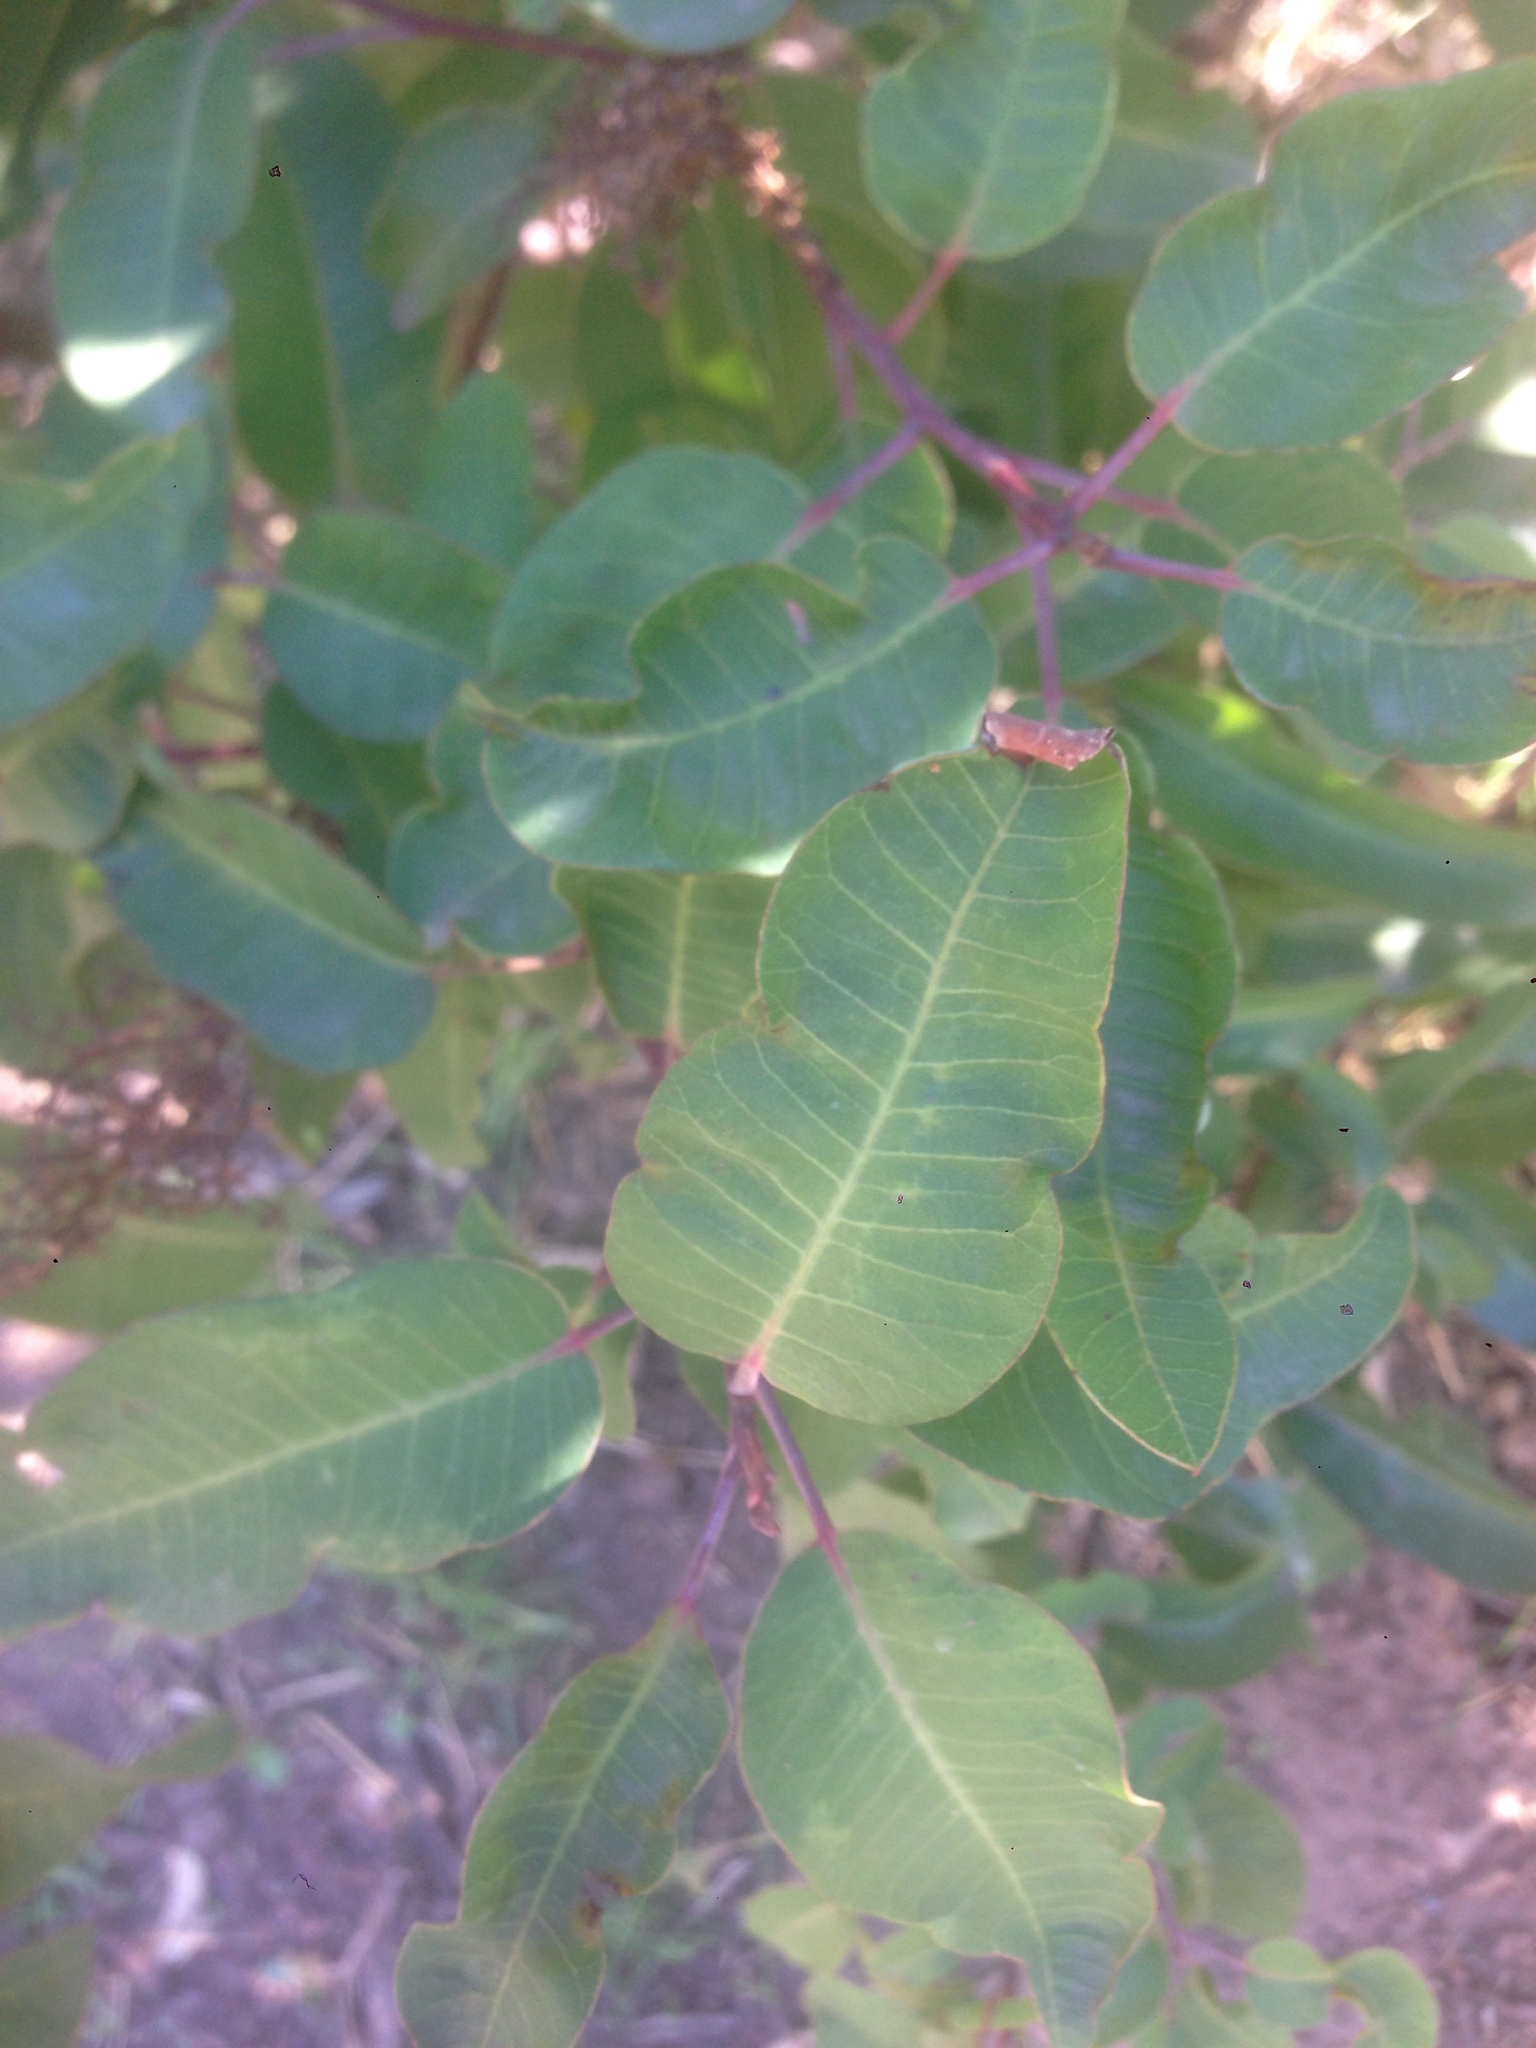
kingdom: Plantae
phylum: Tracheophyta
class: Magnoliopsida
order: Sapindales
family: Anacardiaceae
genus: Malosma
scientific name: Malosma laurina
